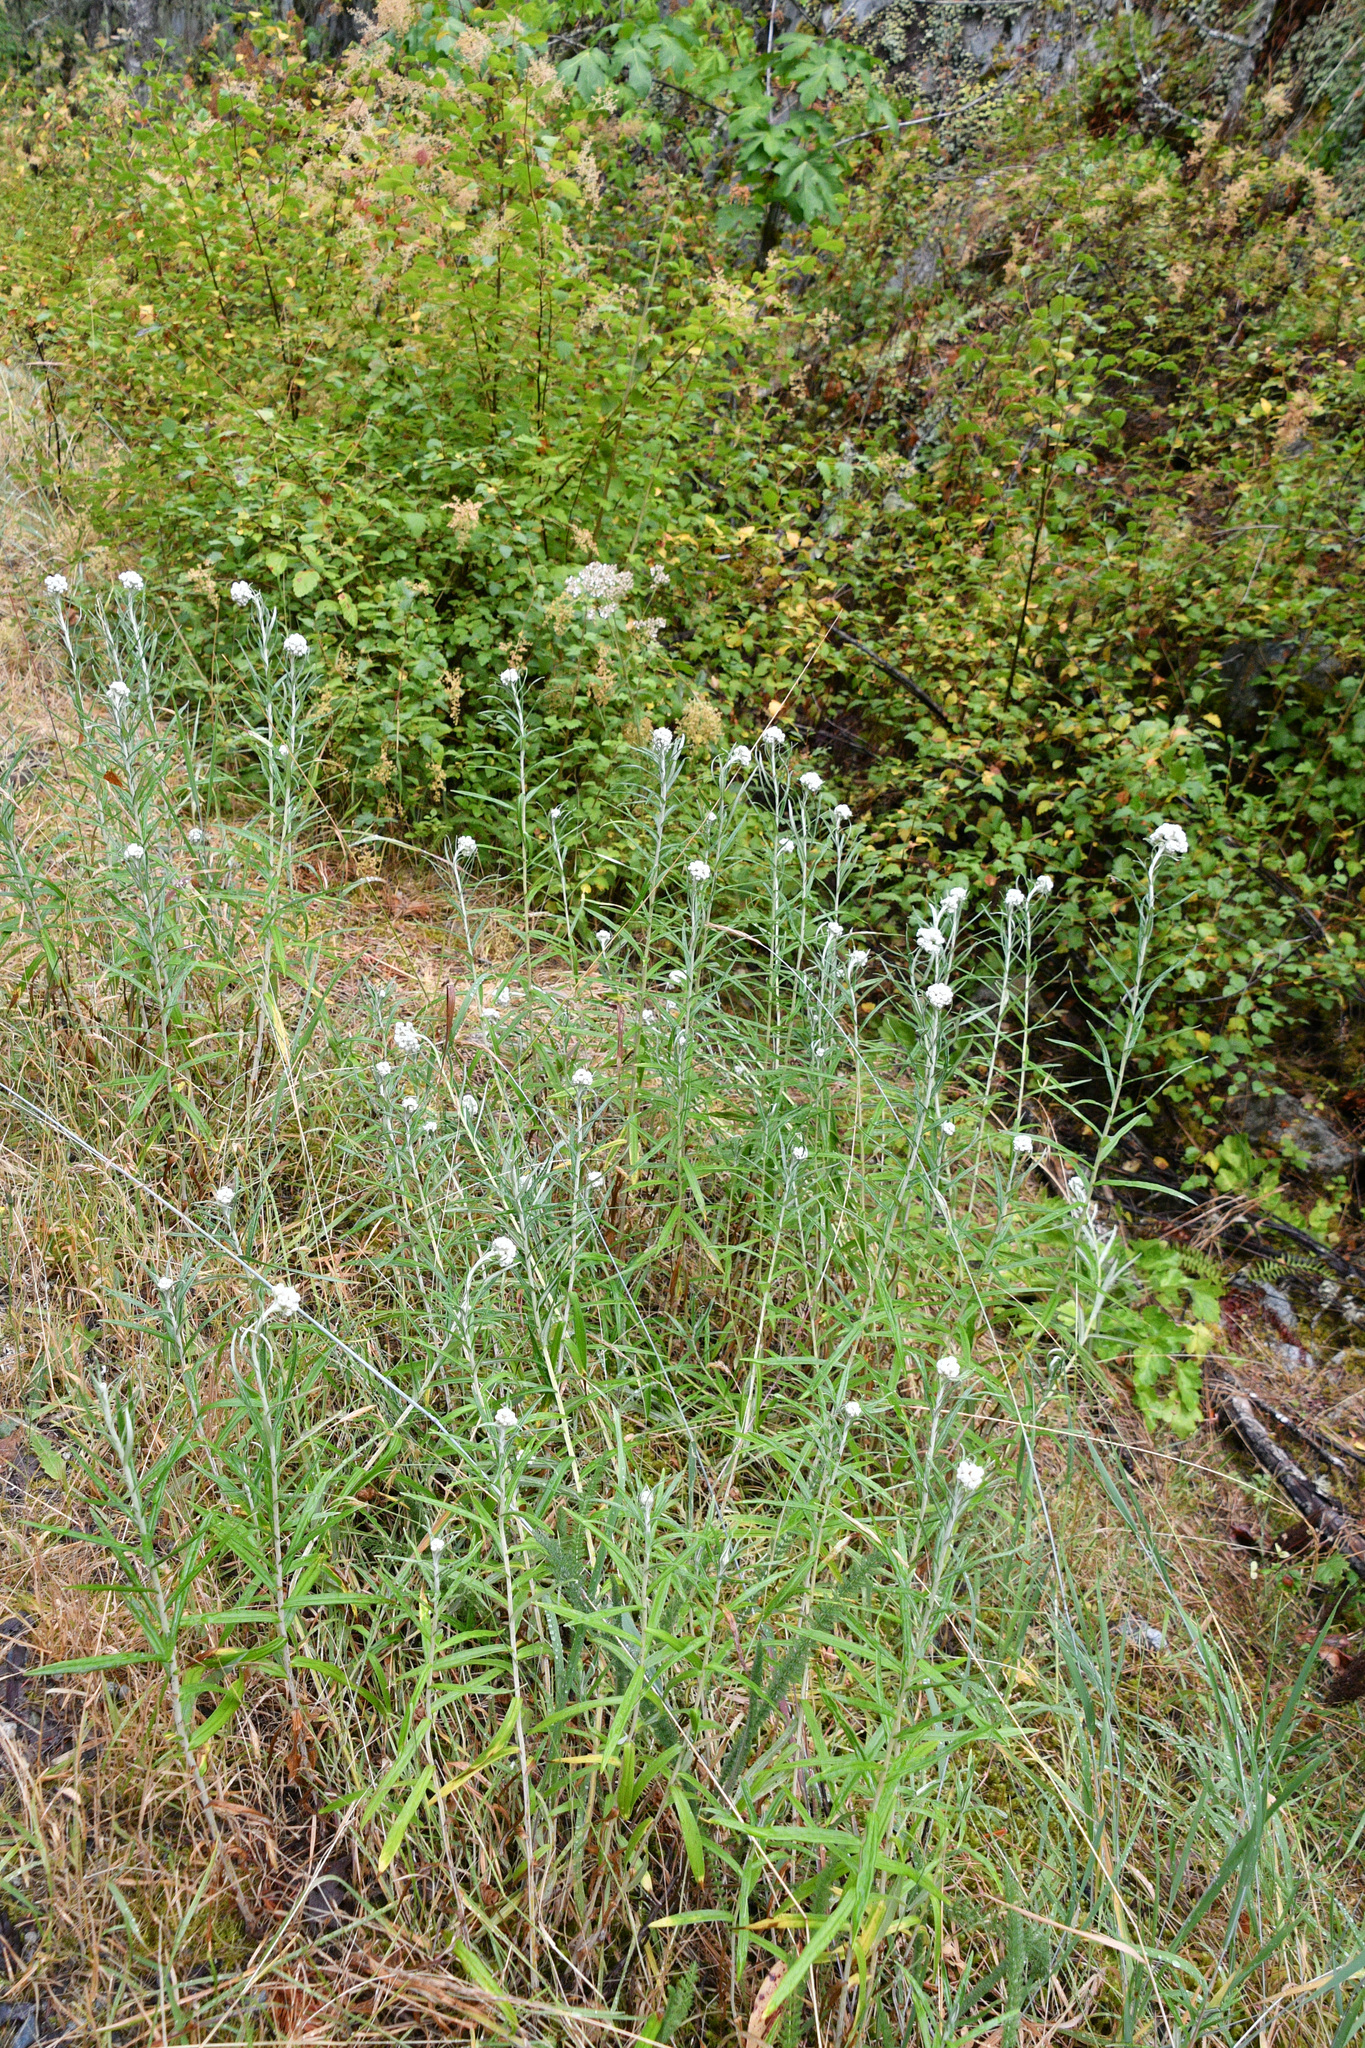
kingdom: Plantae
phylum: Tracheophyta
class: Magnoliopsida
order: Asterales
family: Asteraceae
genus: Anaphalis
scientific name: Anaphalis margaritacea
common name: Pearly everlasting
